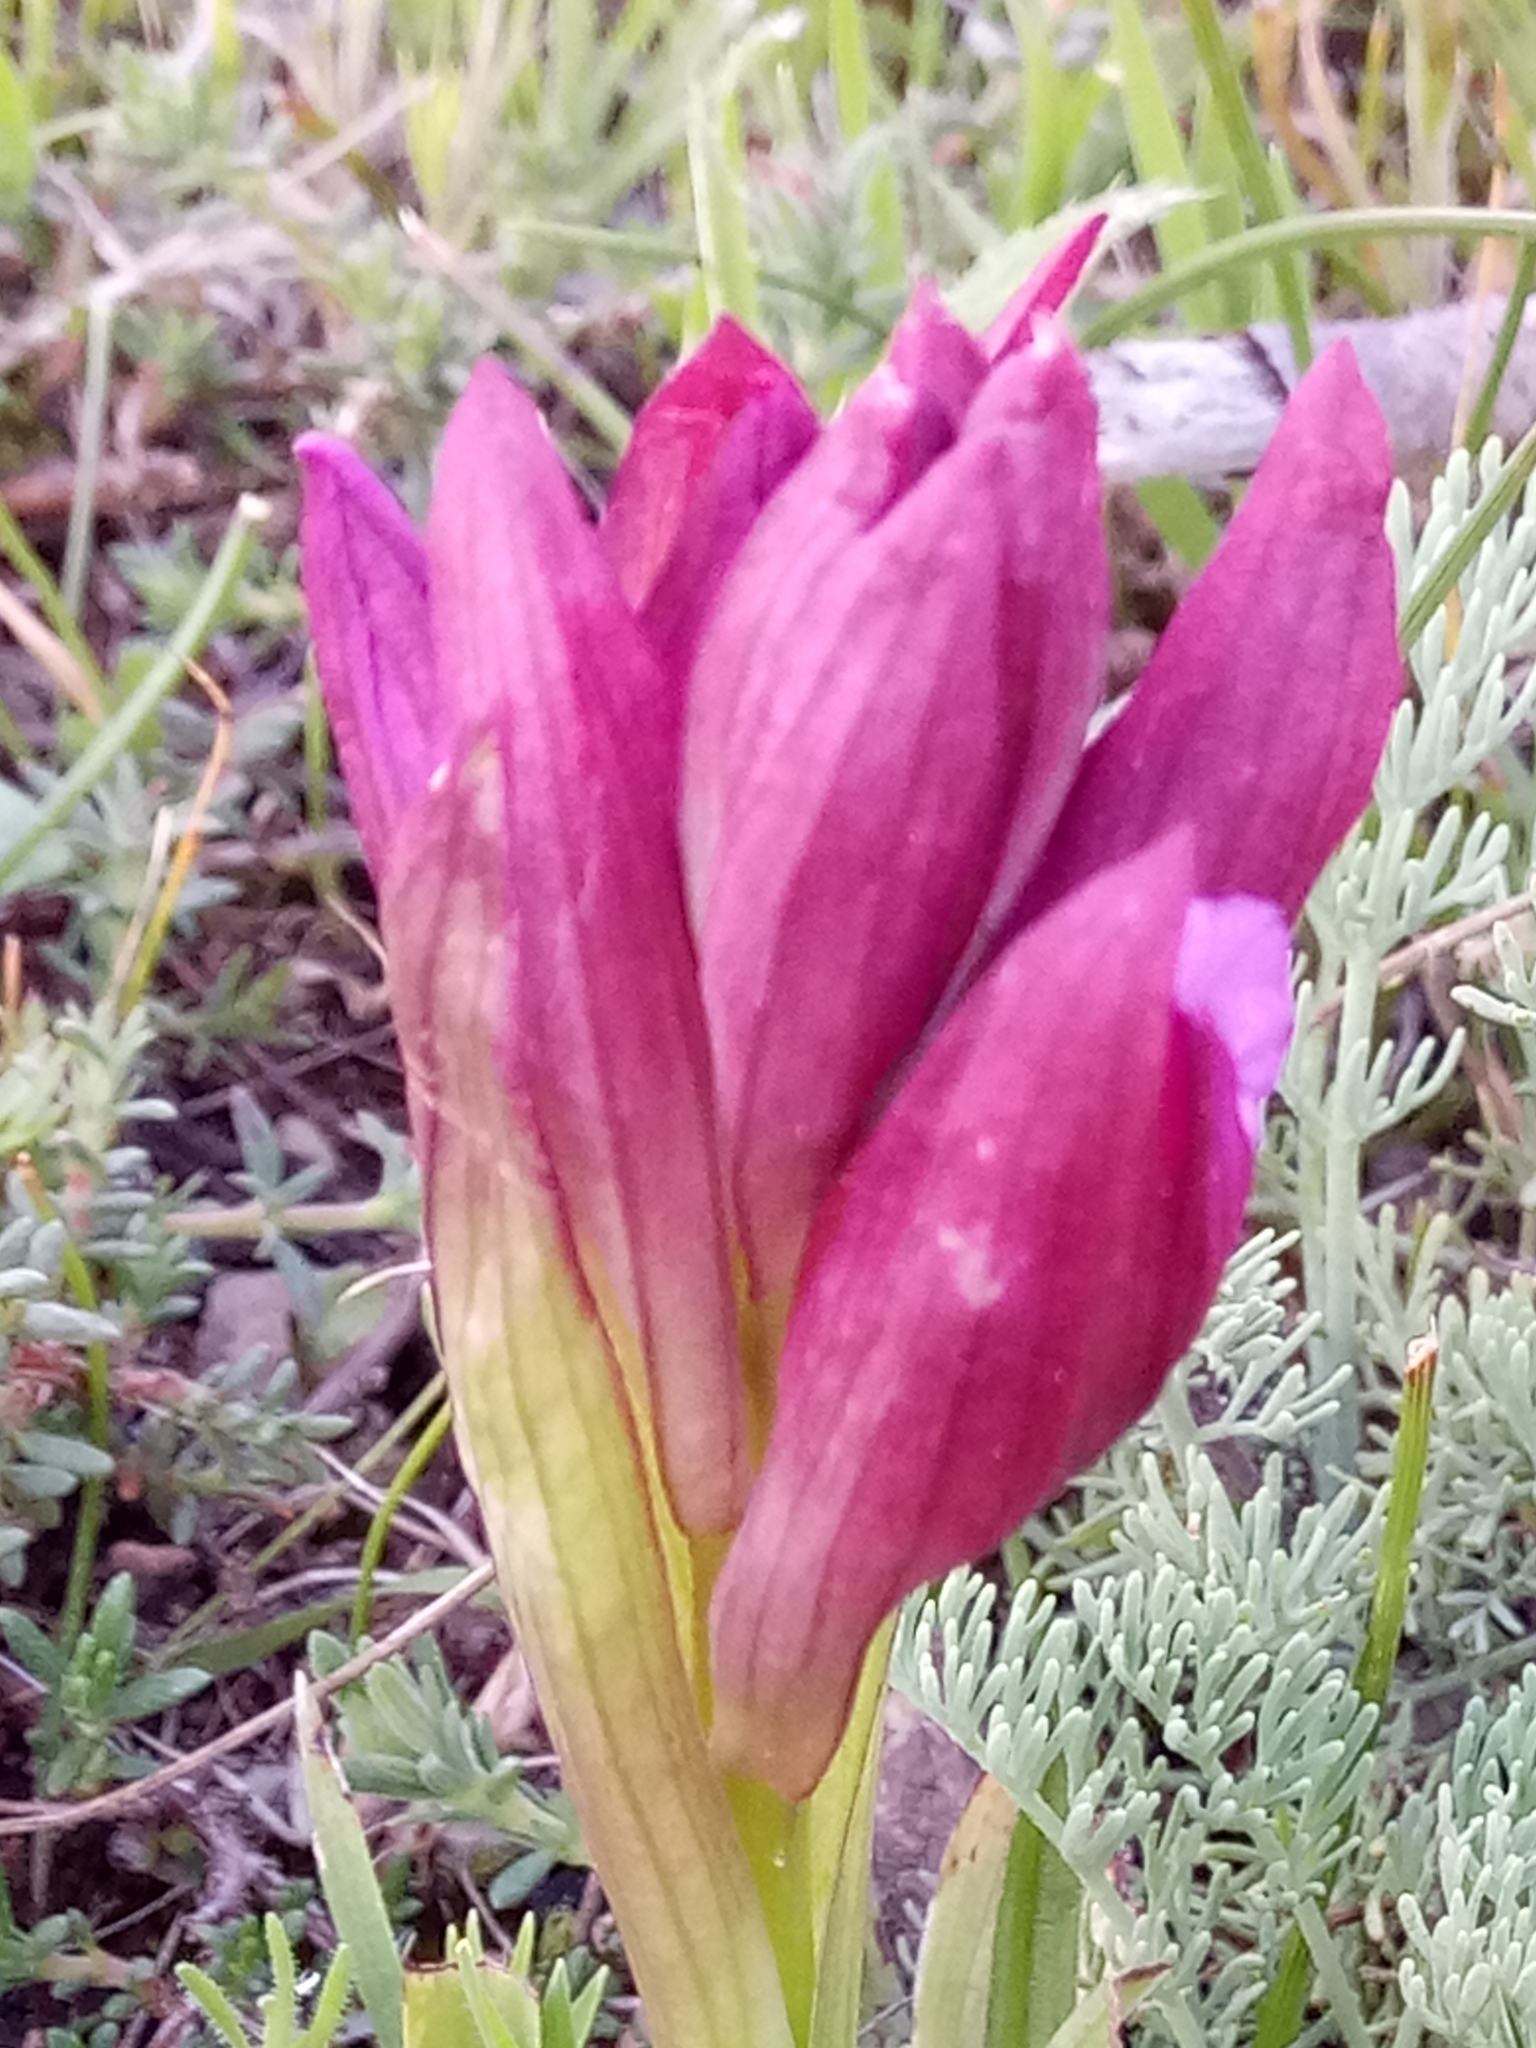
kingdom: Plantae
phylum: Tracheophyta
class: Liliopsida
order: Asparagales
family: Orchidaceae
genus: Anacamptis
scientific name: Anacamptis papilionacea
